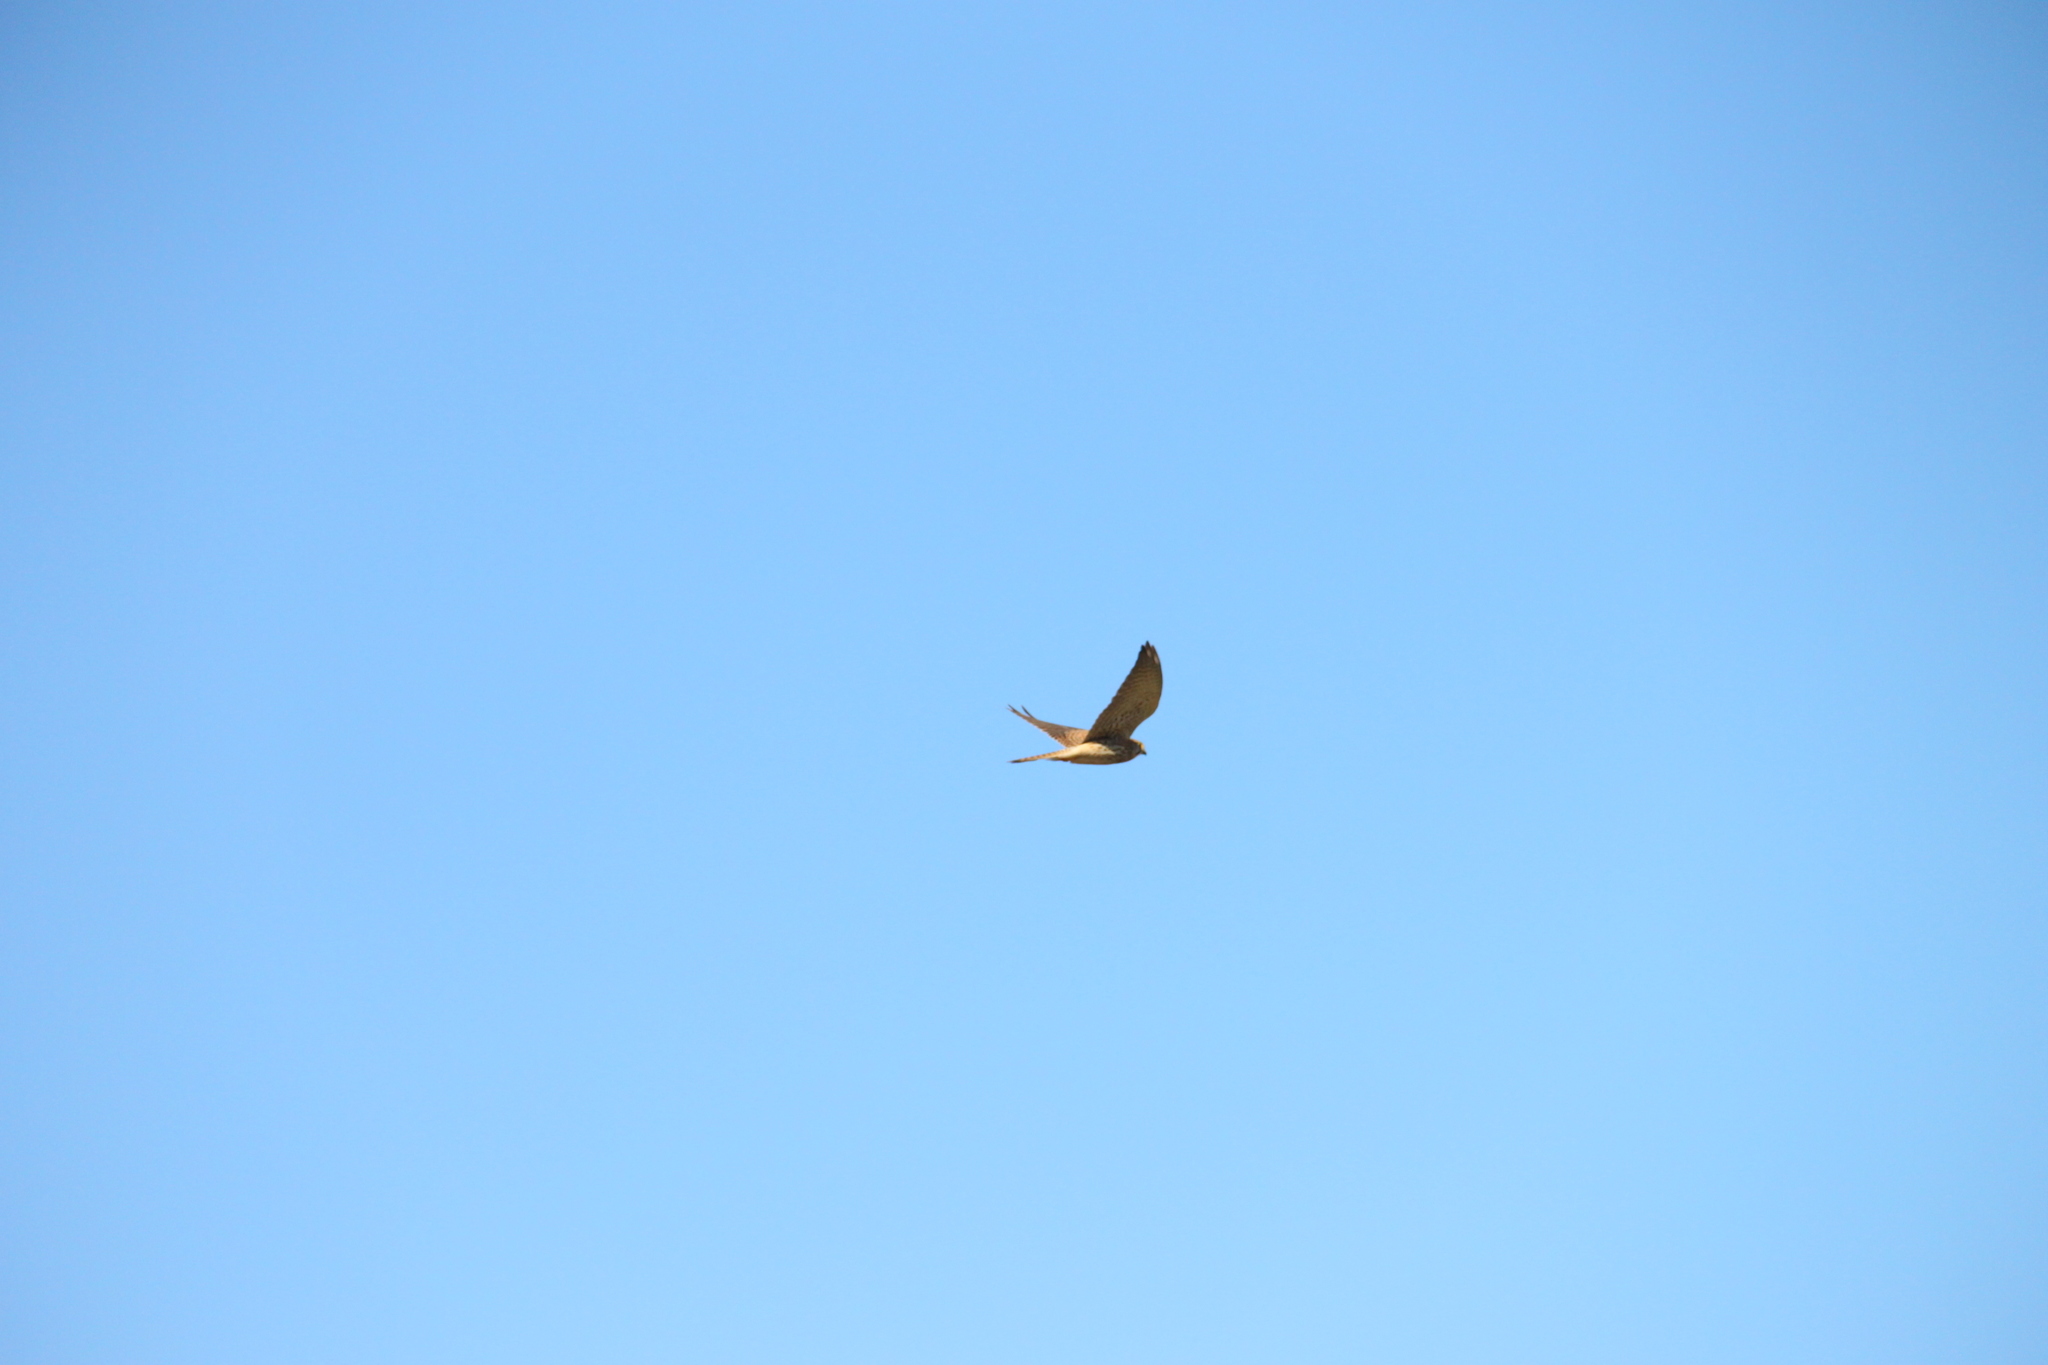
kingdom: Animalia
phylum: Chordata
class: Aves
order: Falconiformes
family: Falconidae
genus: Falco
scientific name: Falco tinnunculus
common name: Common kestrel
